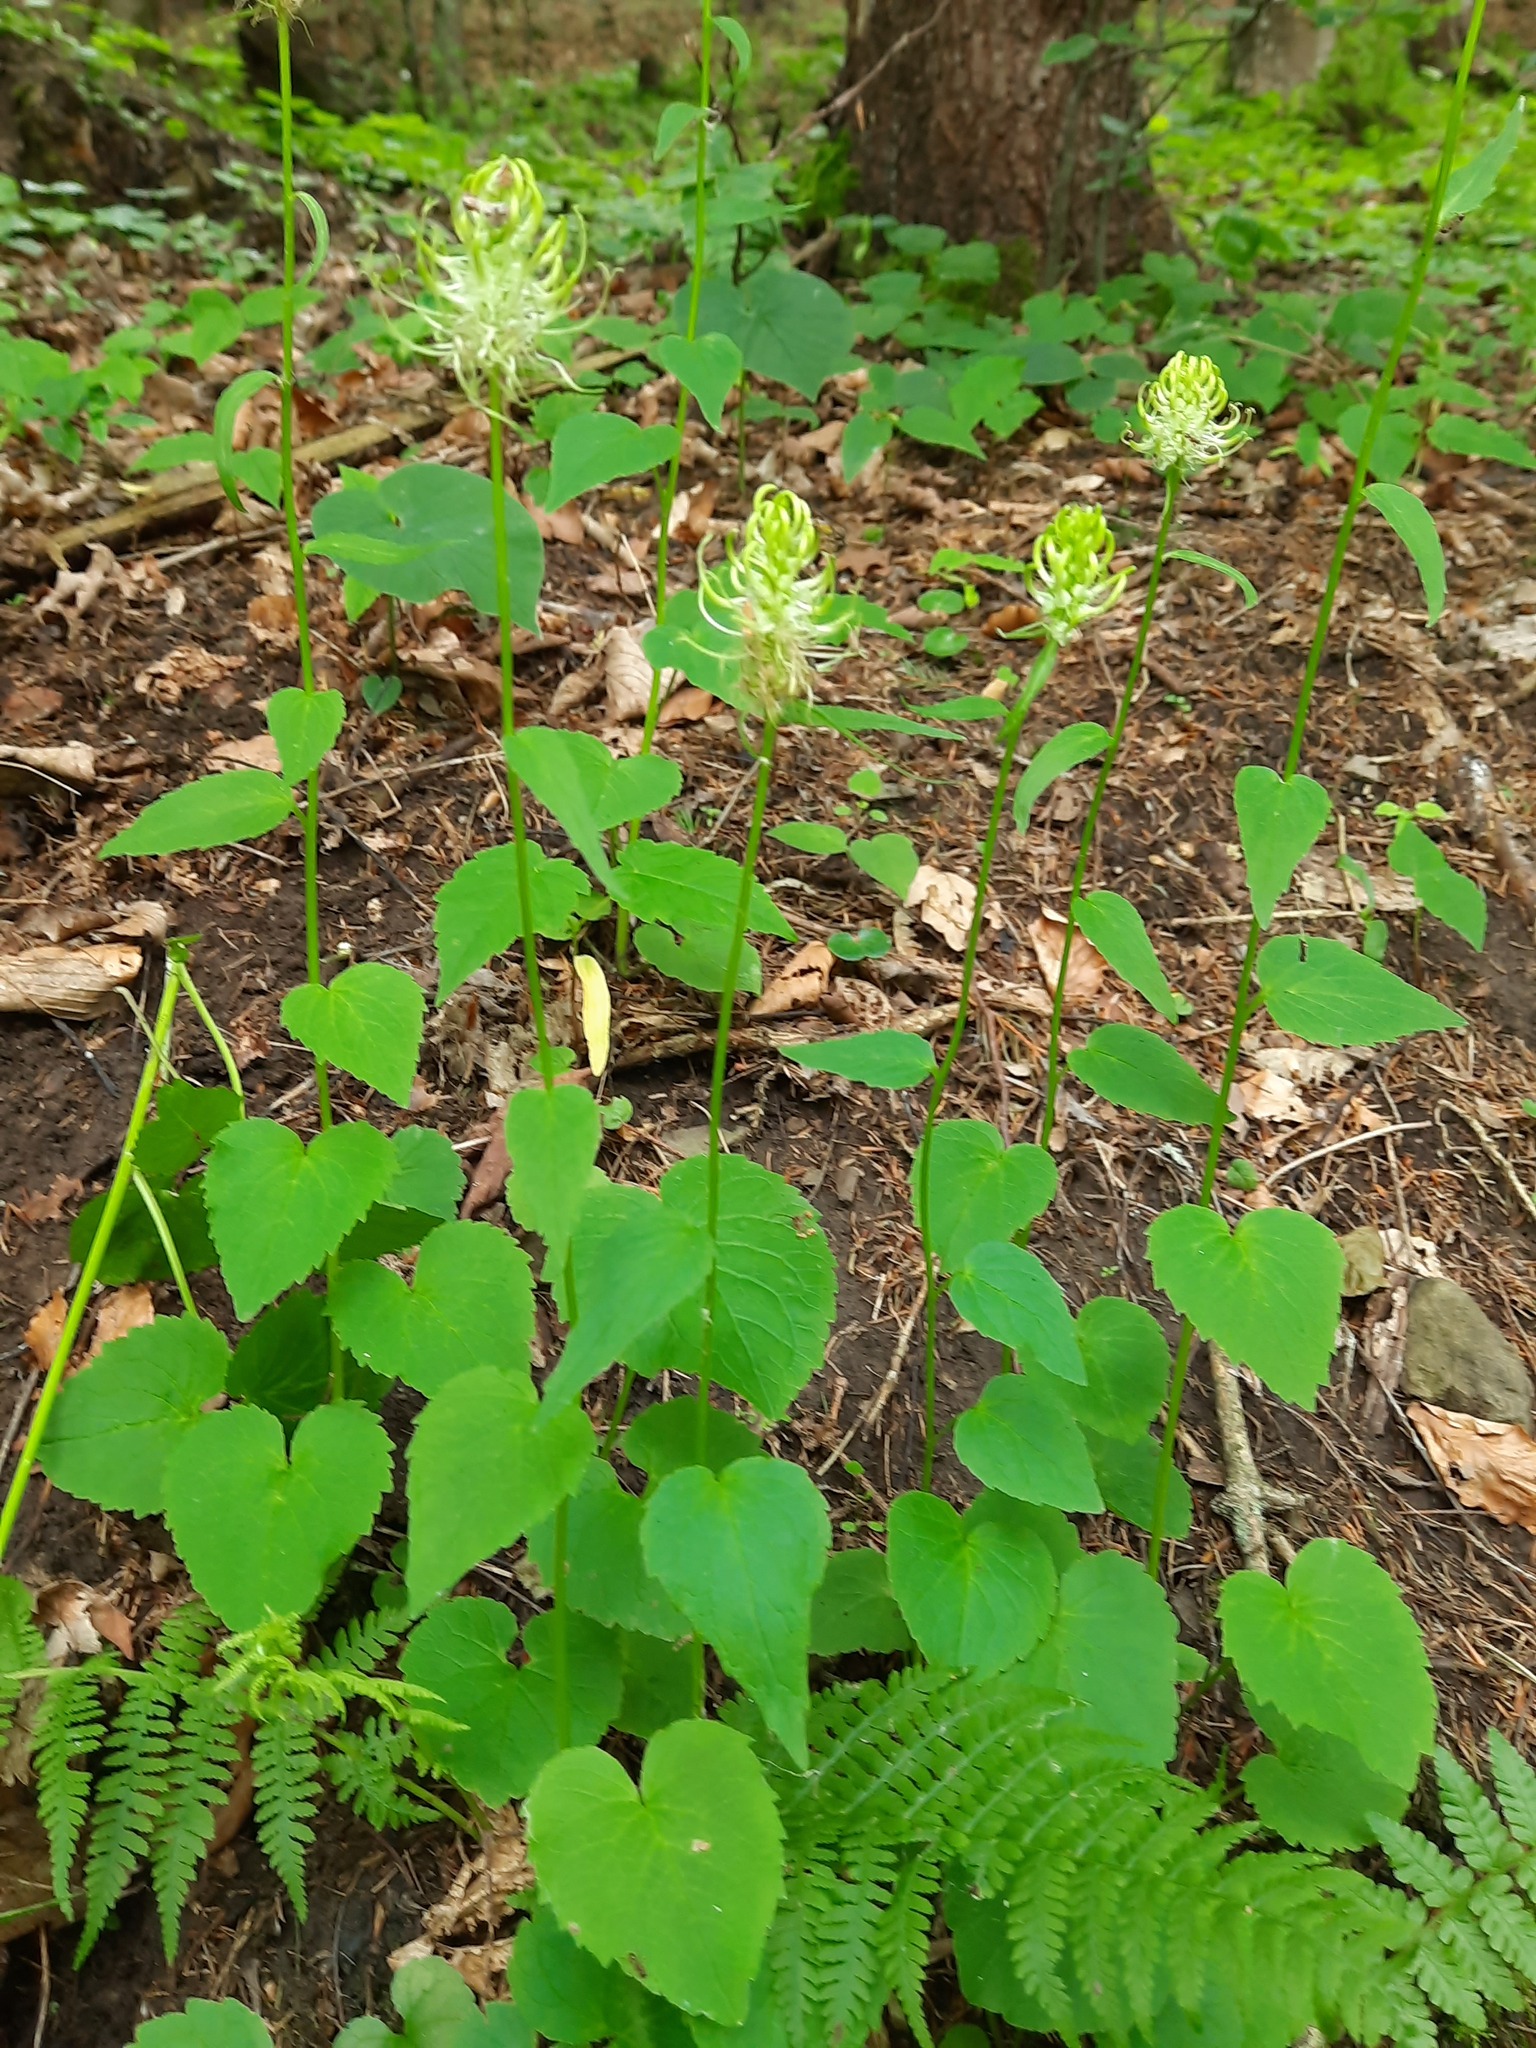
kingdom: Plantae
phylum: Tracheophyta
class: Magnoliopsida
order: Asterales
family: Campanulaceae
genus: Phyteuma
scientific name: Phyteuma spicatum
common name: Spiked rampion
